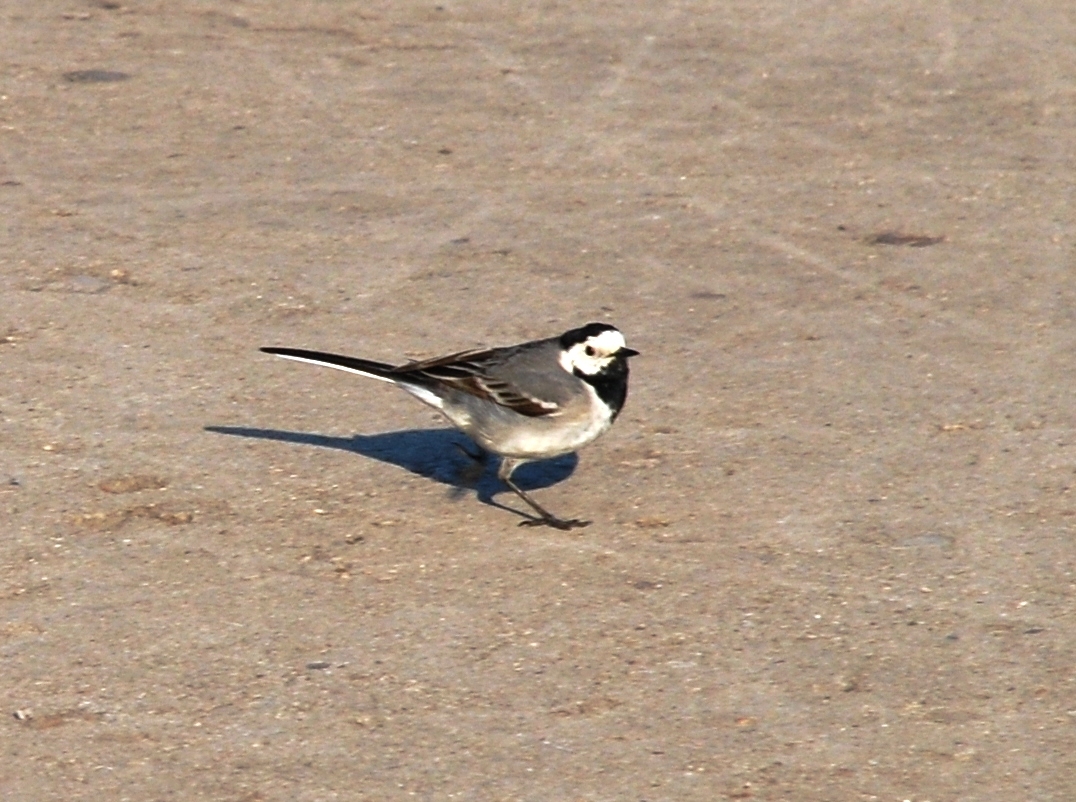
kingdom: Animalia
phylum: Chordata
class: Aves
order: Passeriformes
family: Motacillidae
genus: Motacilla
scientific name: Motacilla alba
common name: White wagtail
